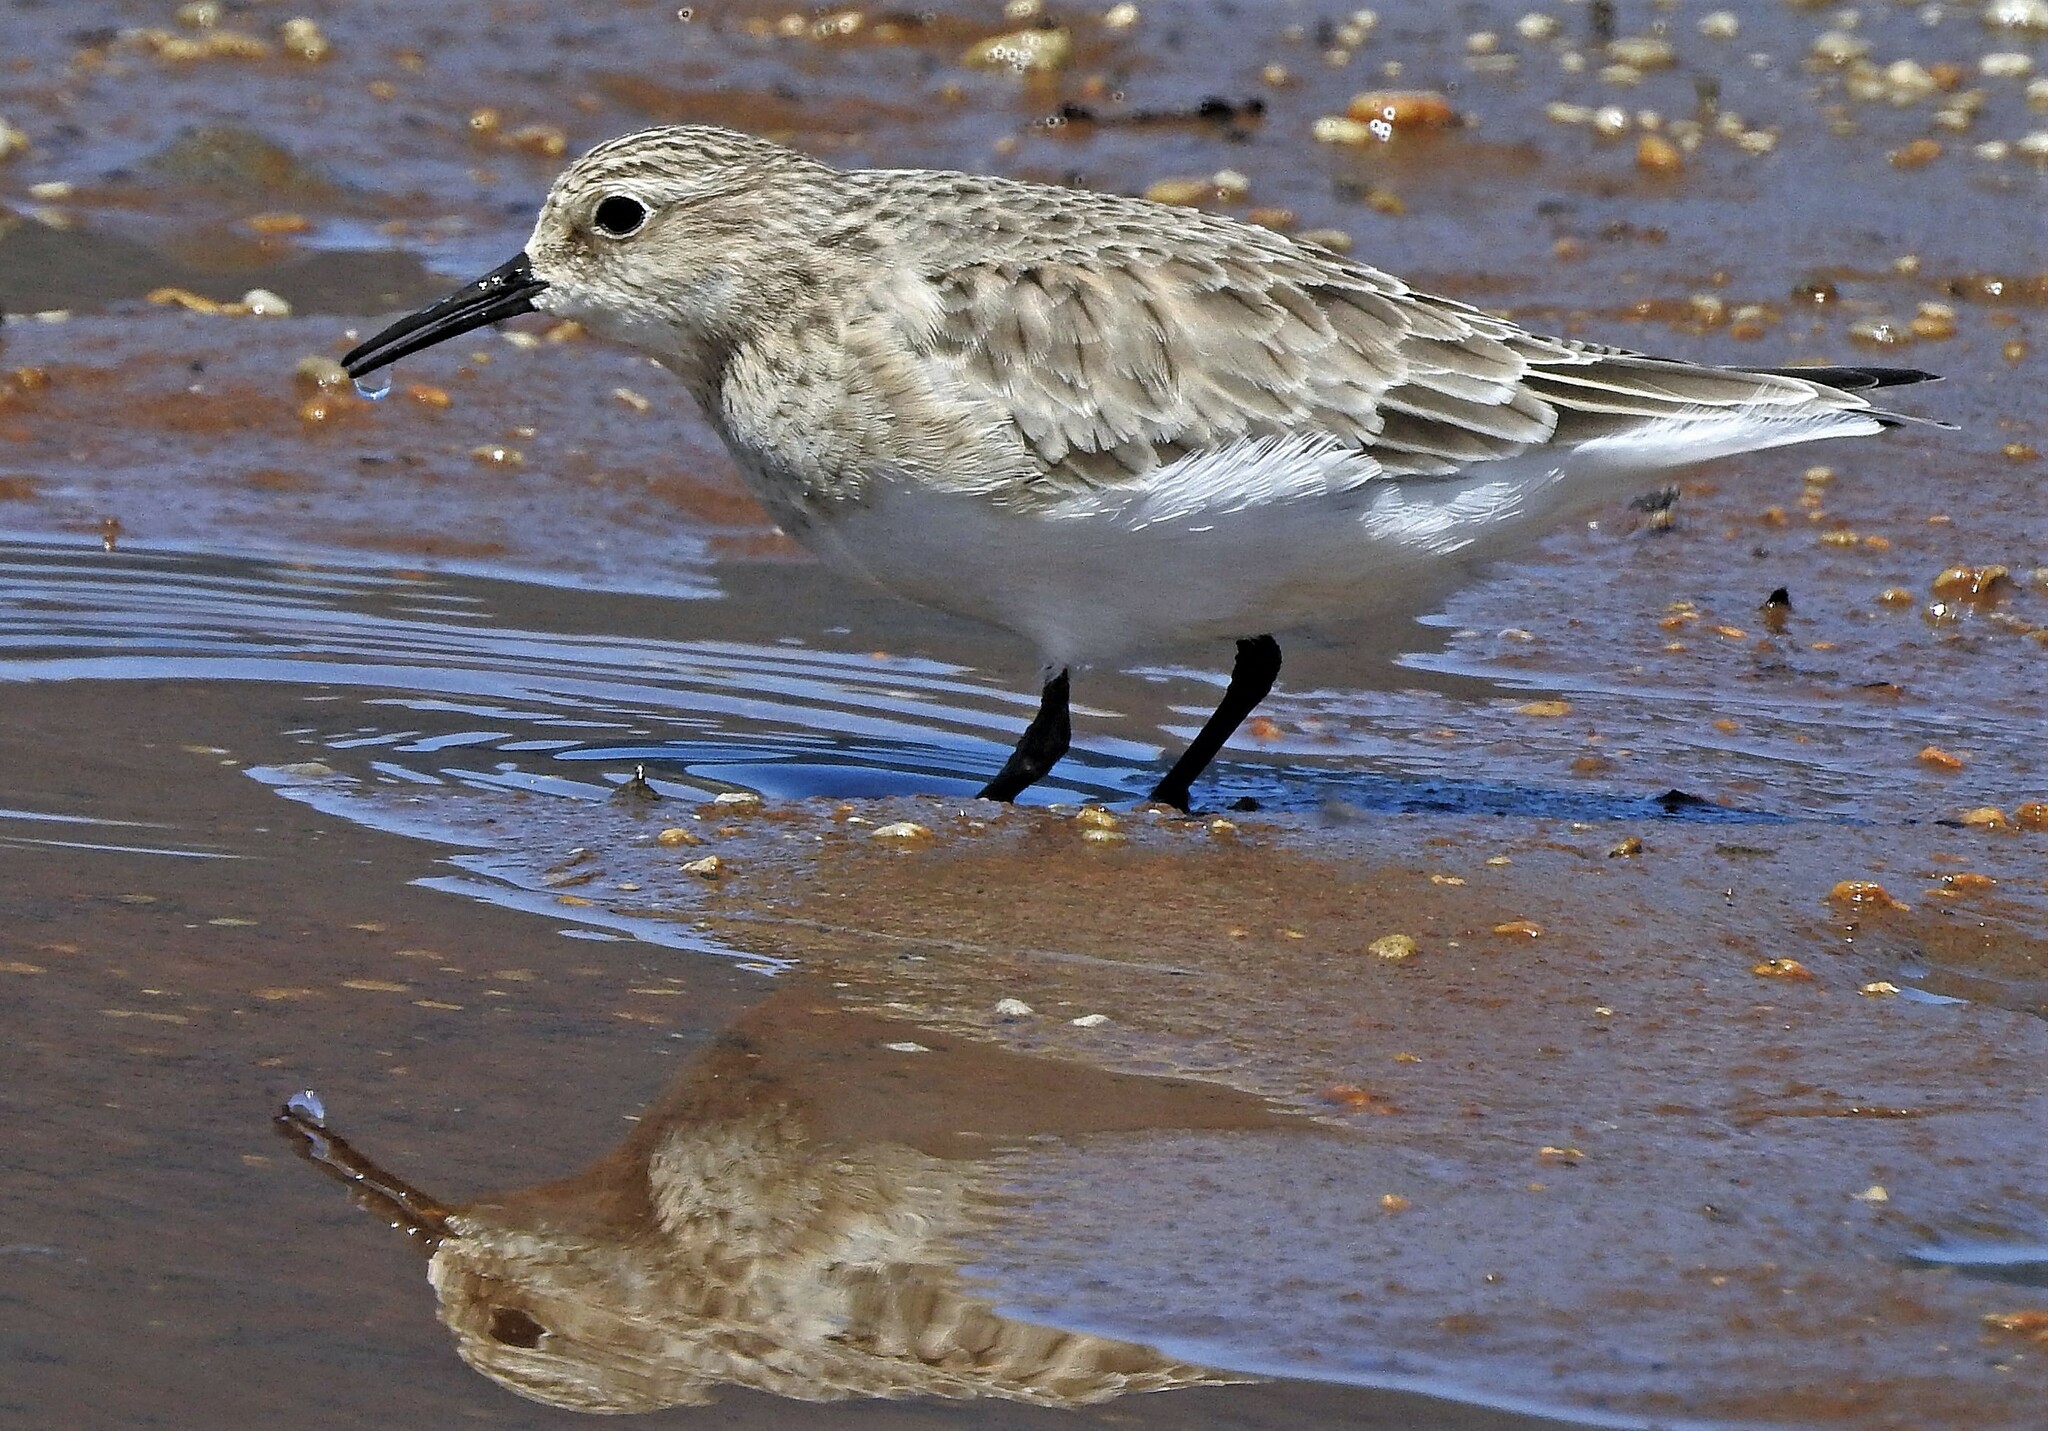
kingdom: Animalia
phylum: Chordata
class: Aves
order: Charadriiformes
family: Scolopacidae
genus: Calidris
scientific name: Calidris bairdii
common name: Baird's sandpiper
